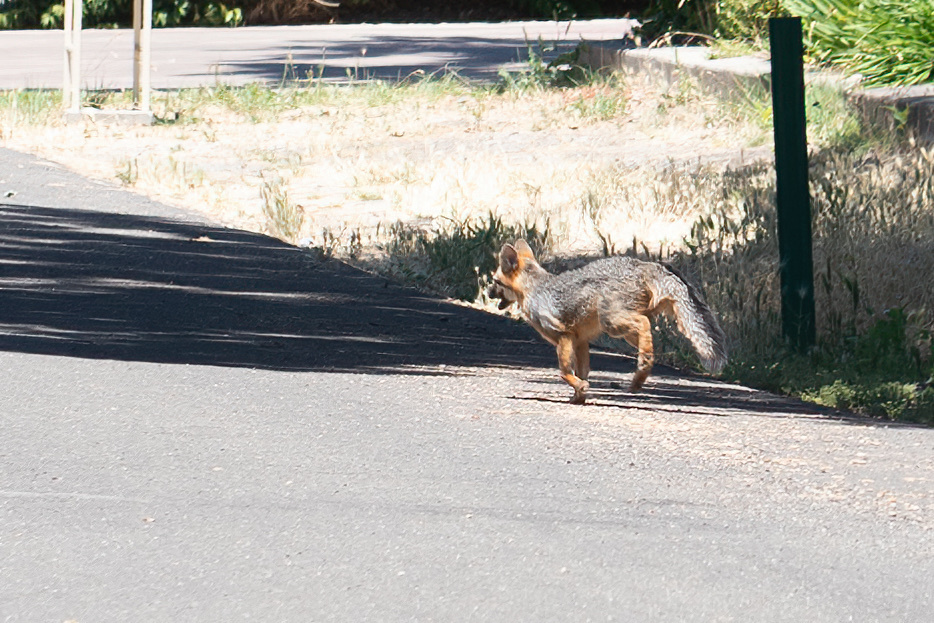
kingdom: Animalia
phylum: Chordata
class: Mammalia
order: Carnivora
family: Canidae
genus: Urocyon
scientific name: Urocyon cinereoargenteus
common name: Gray fox
